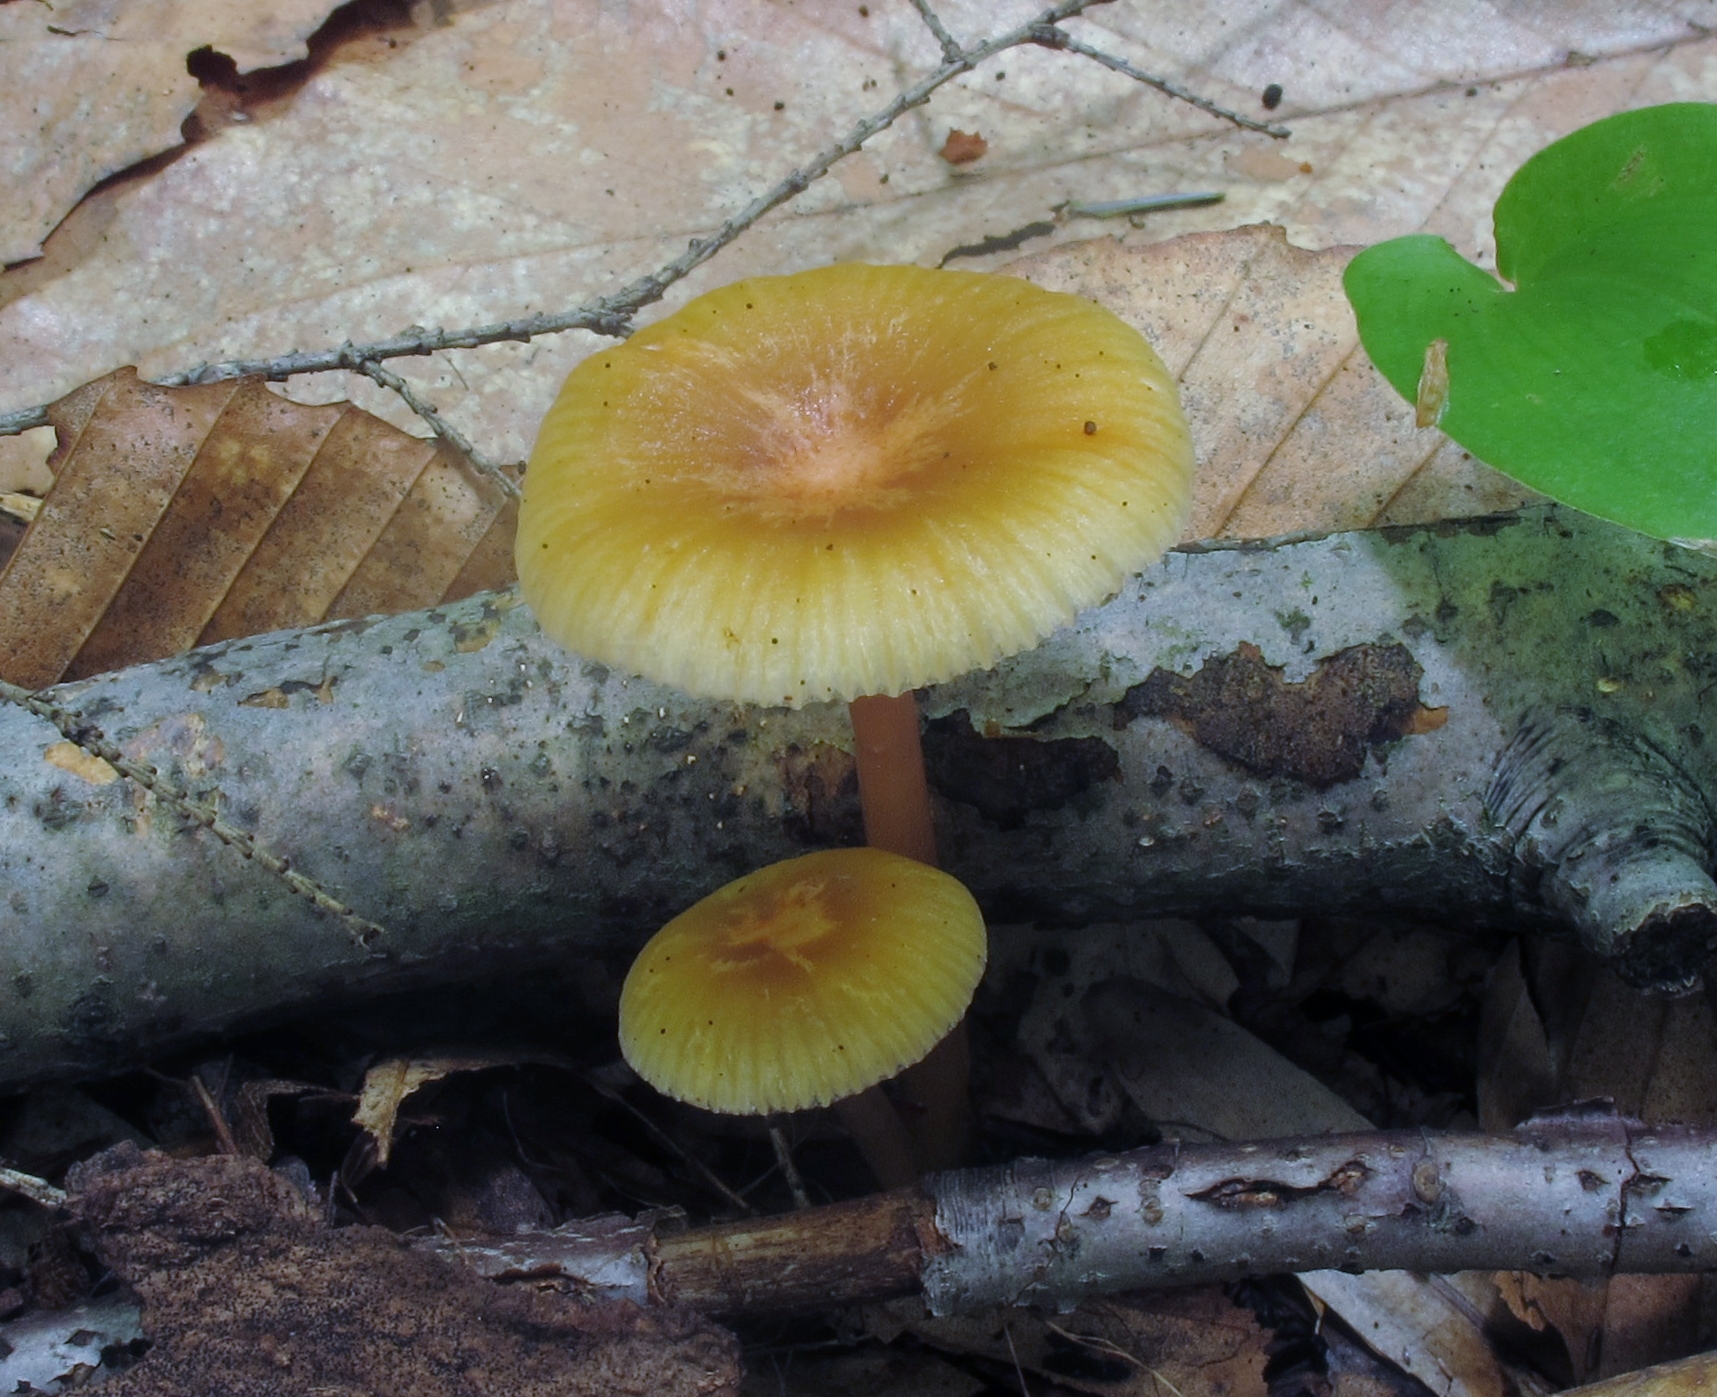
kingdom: Fungi
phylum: Basidiomycota
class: Agaricomycetes
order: Agaricales
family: Hygrophoraceae
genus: Gliophorus
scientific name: Gliophorus laetus
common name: Heath waxcap
